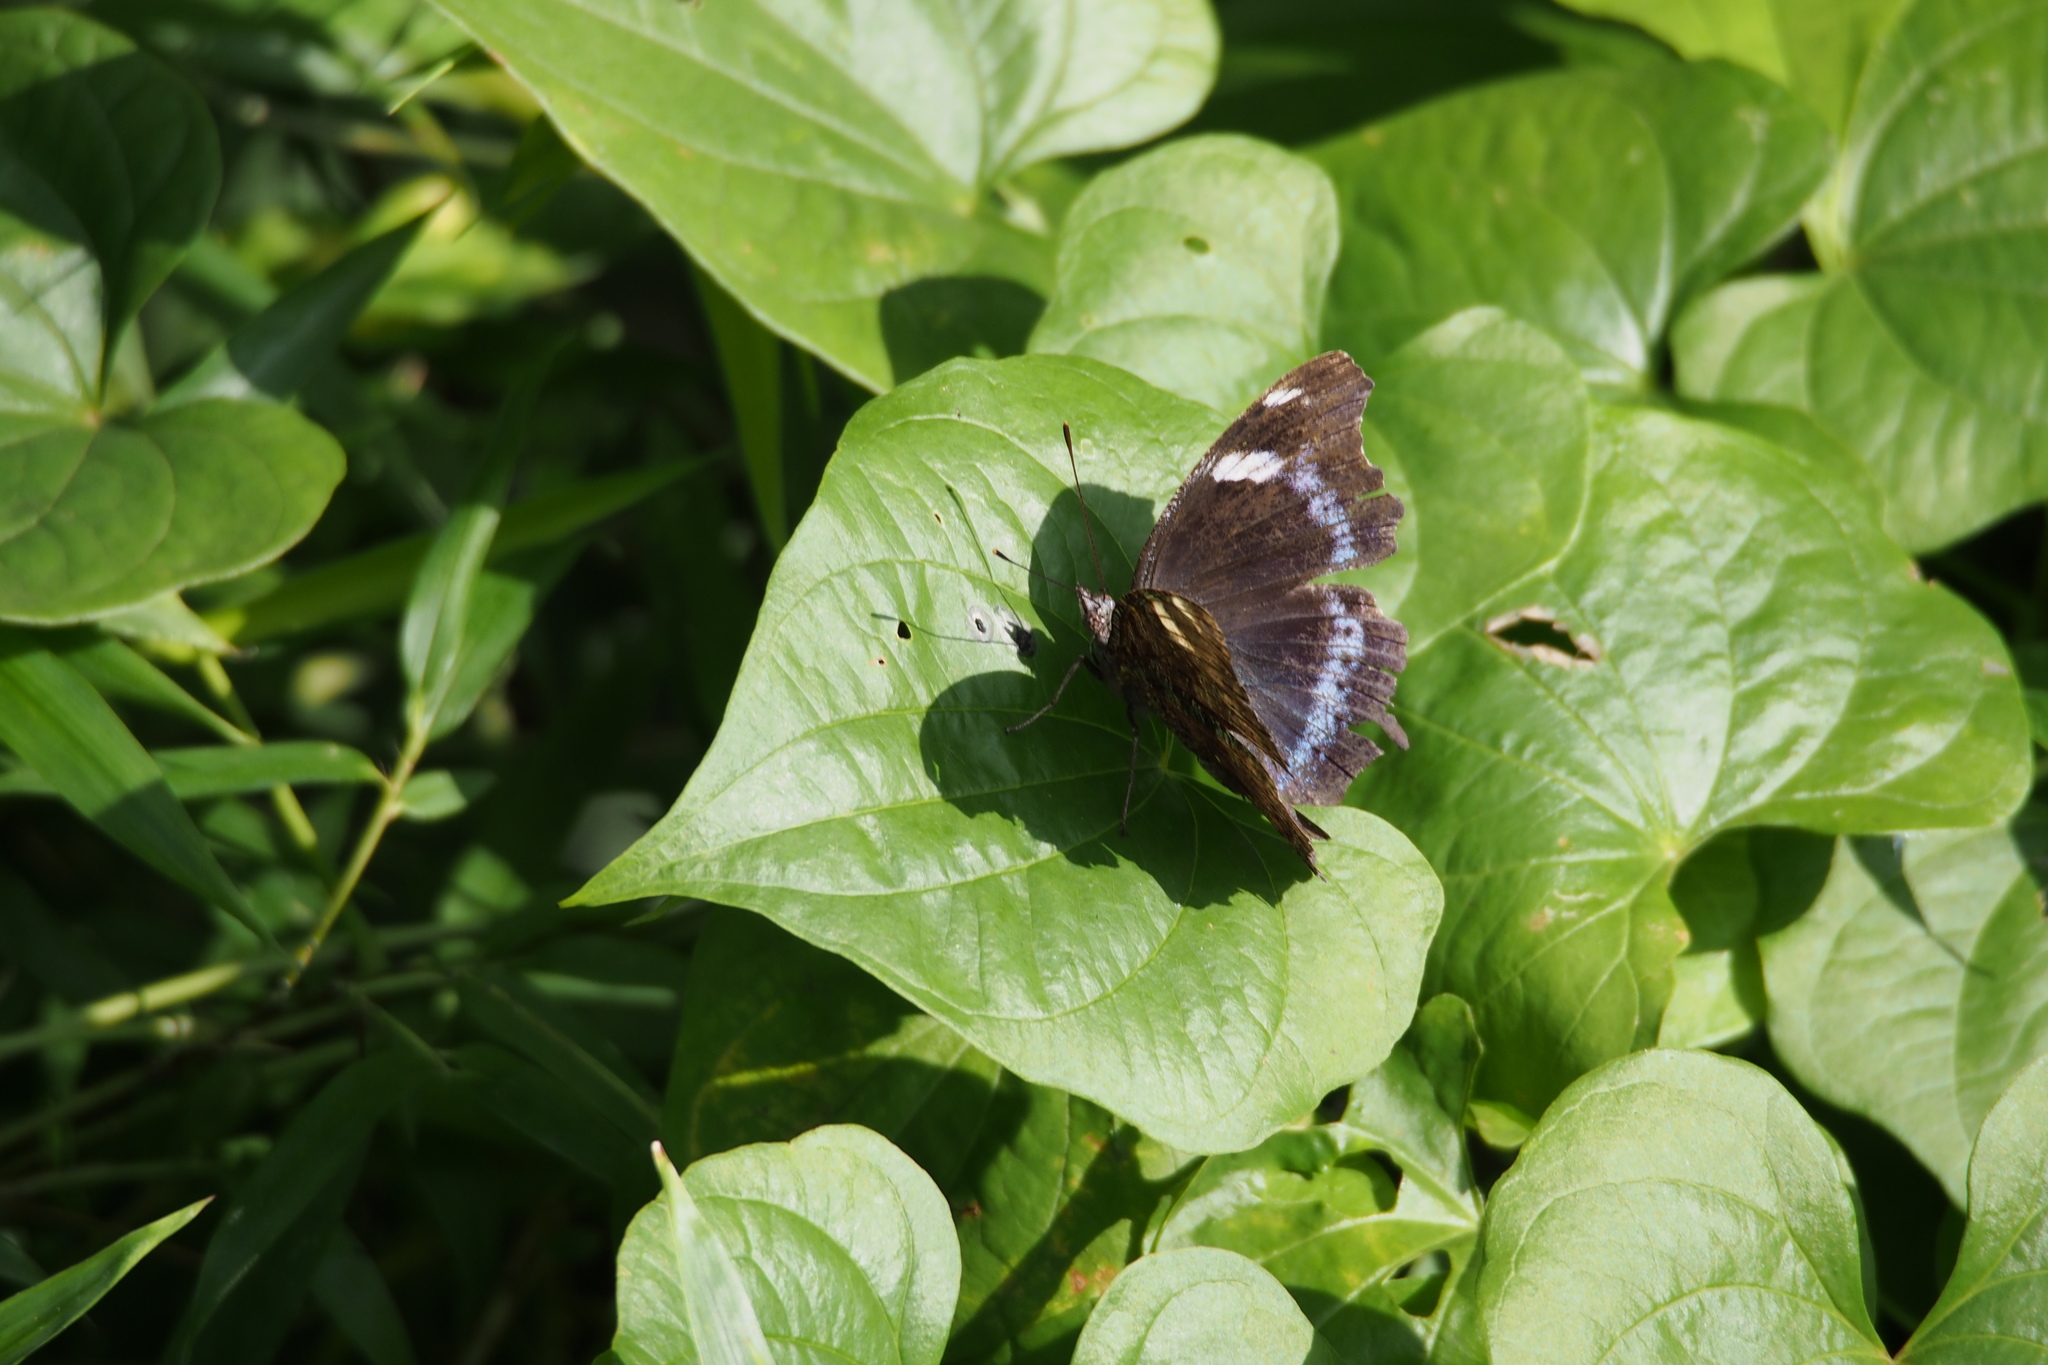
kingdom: Animalia
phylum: Arthropoda
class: Insecta
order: Lepidoptera
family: Nymphalidae
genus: Vanessa
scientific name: Vanessa Kaniska canace
